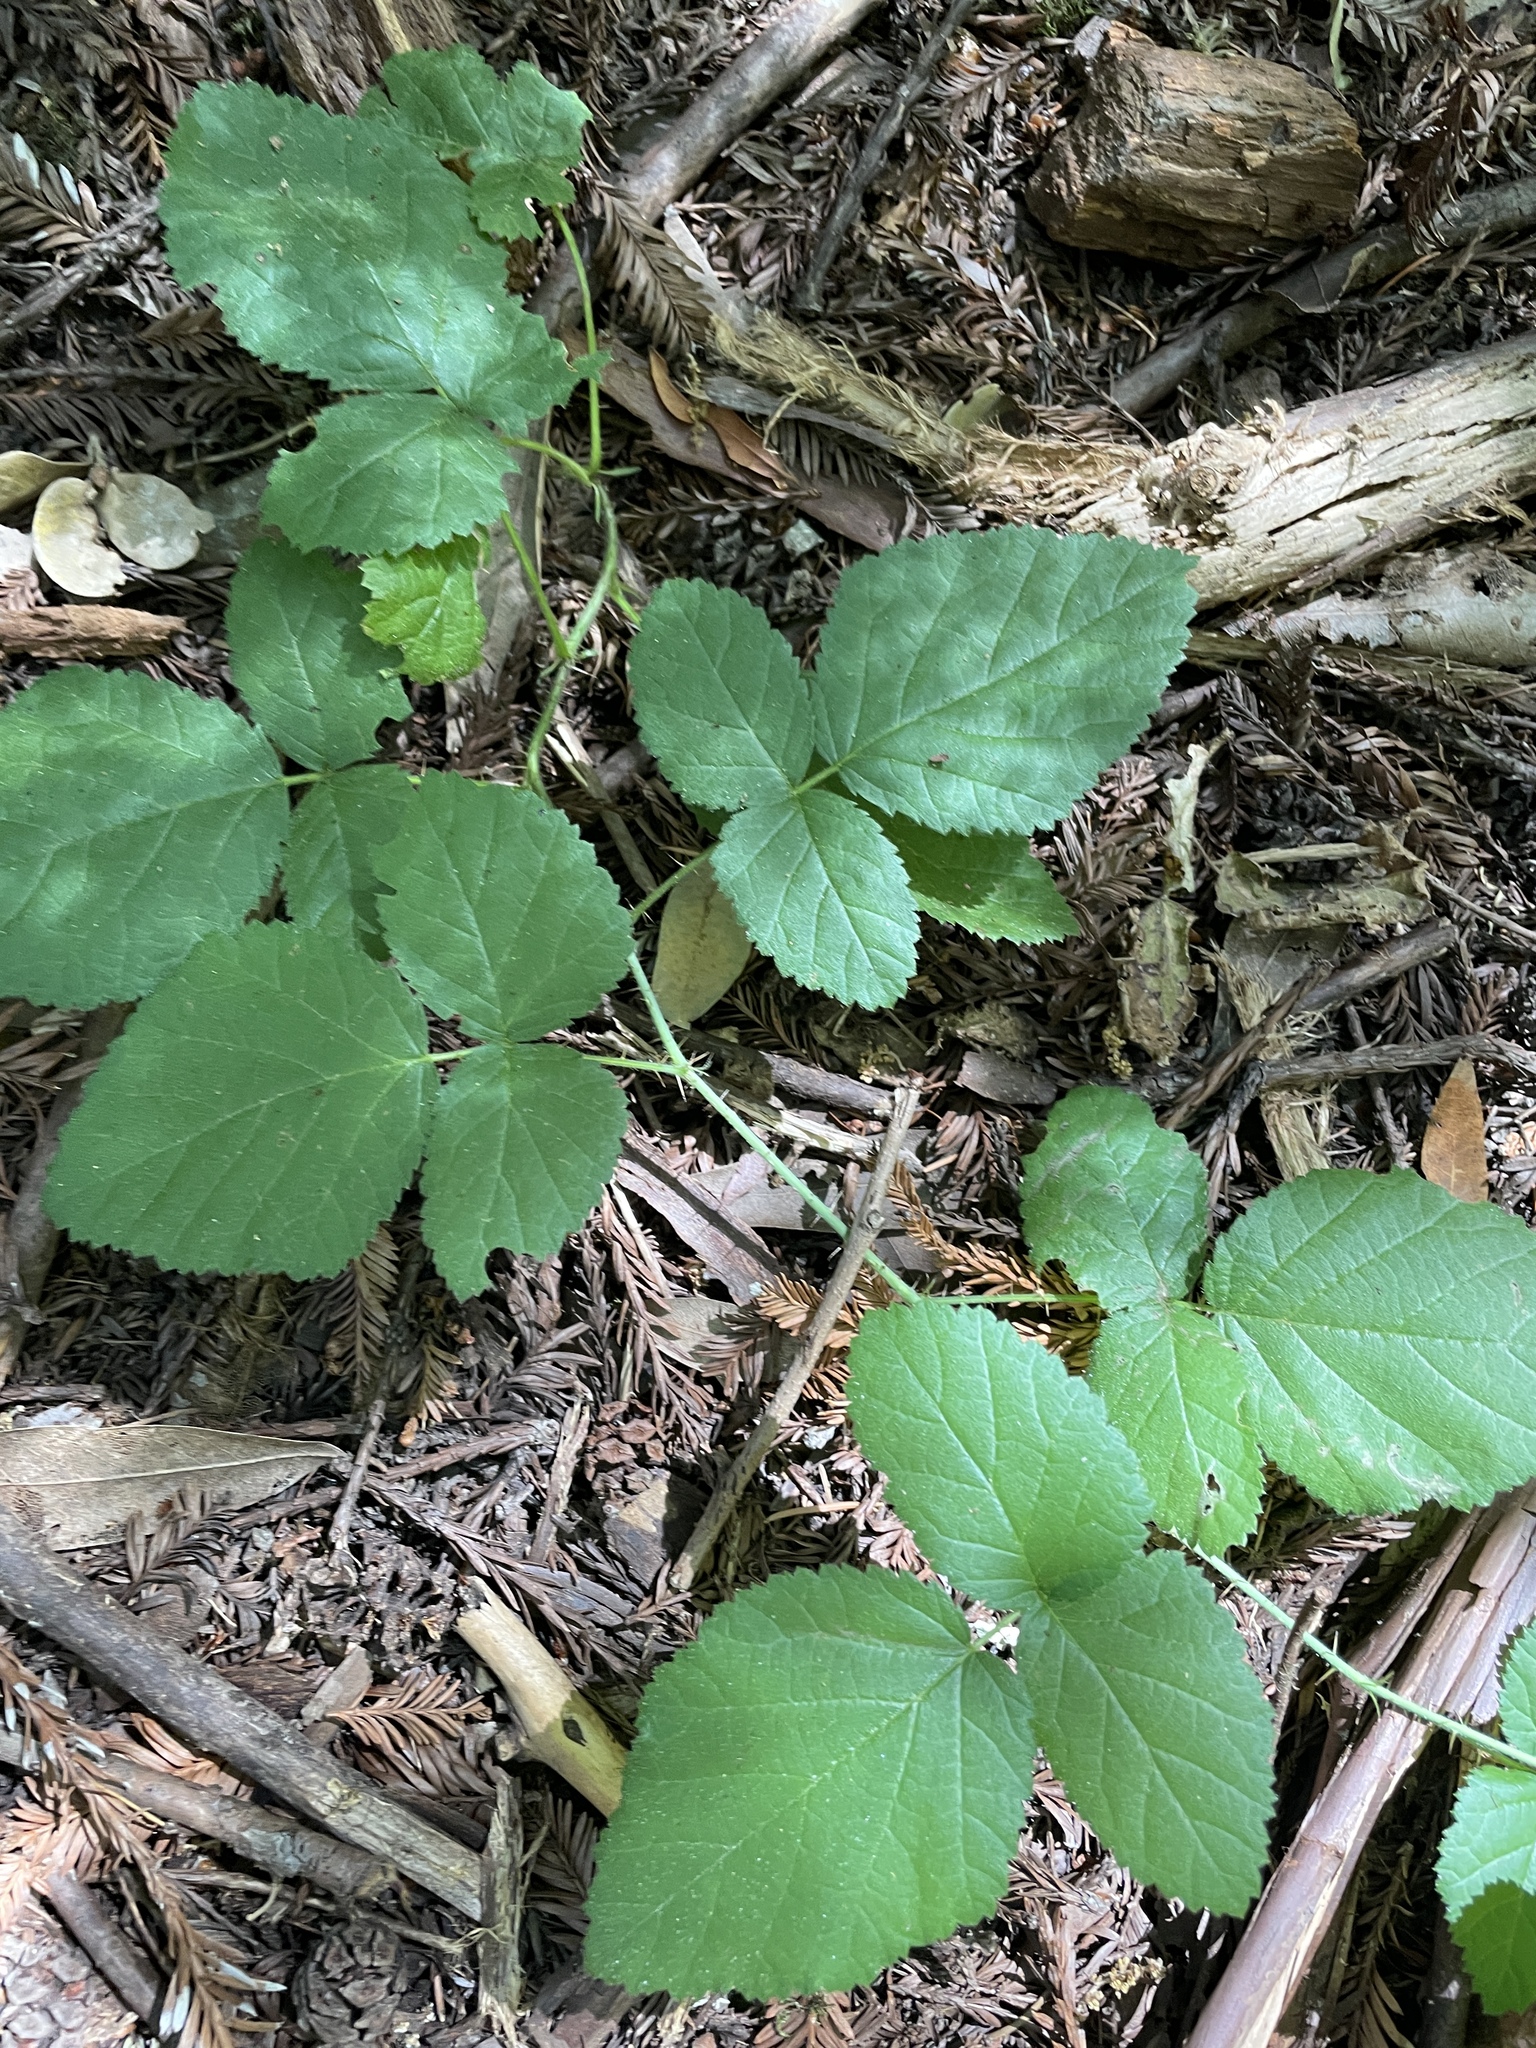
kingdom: Plantae
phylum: Tracheophyta
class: Magnoliopsida
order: Rosales
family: Rosaceae
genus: Rubus
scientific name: Rubus ursinus
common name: Pacific blackberry
